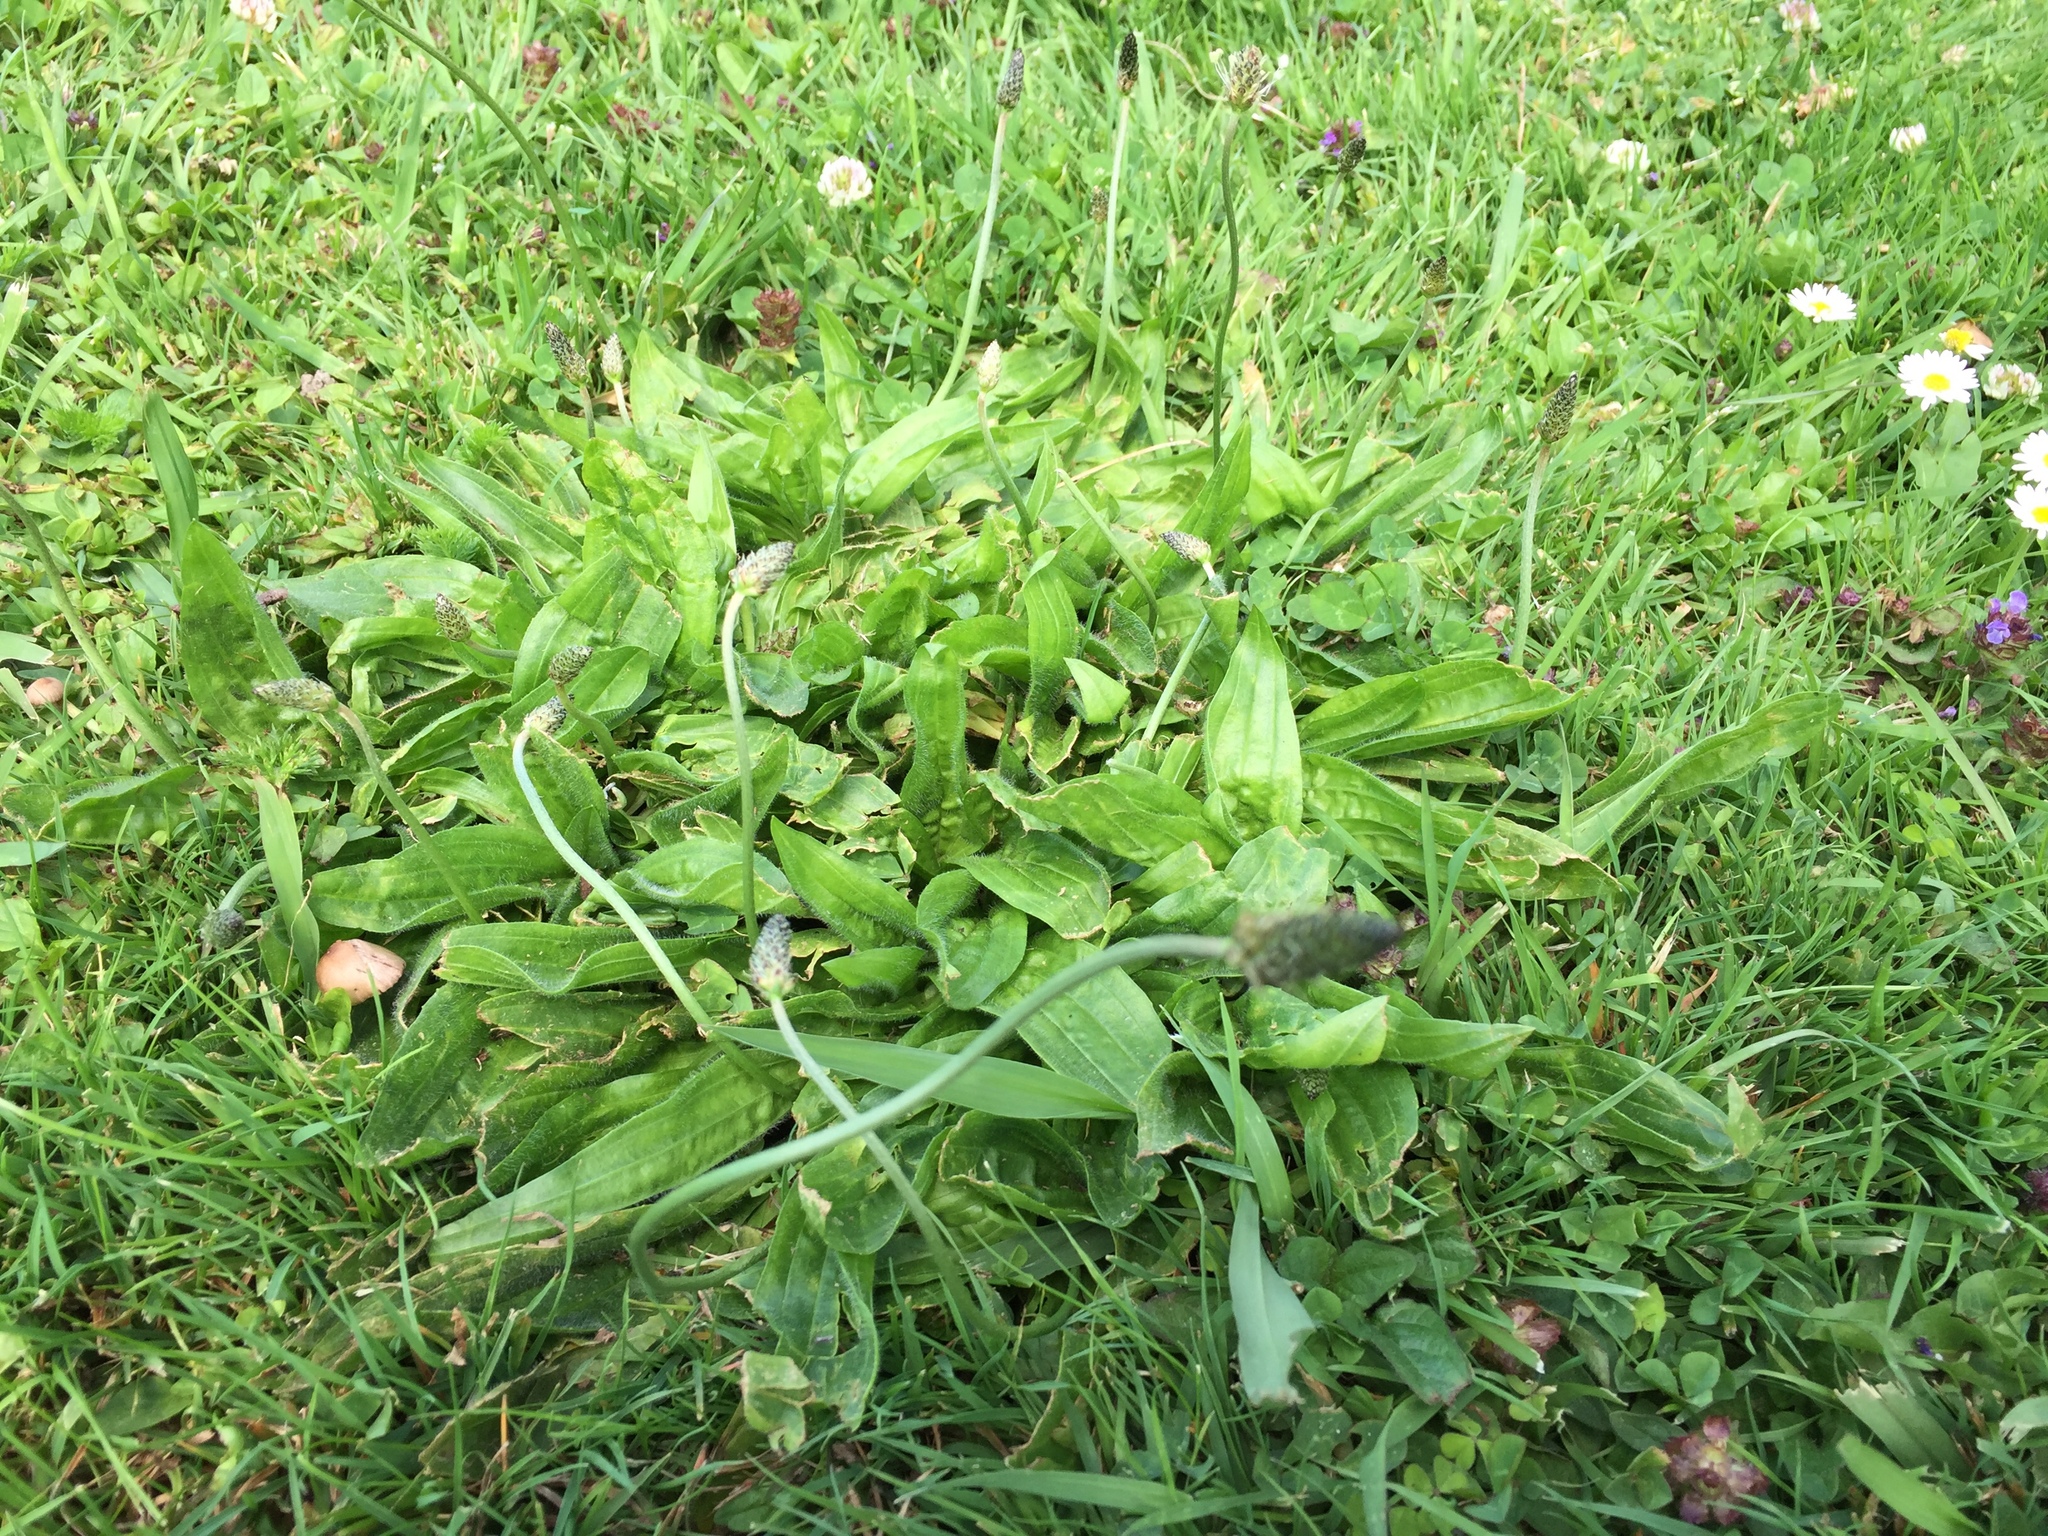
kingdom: Plantae
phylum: Tracheophyta
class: Magnoliopsida
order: Lamiales
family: Plantaginaceae
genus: Plantago
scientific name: Plantago lanceolata
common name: Ribwort plantain
